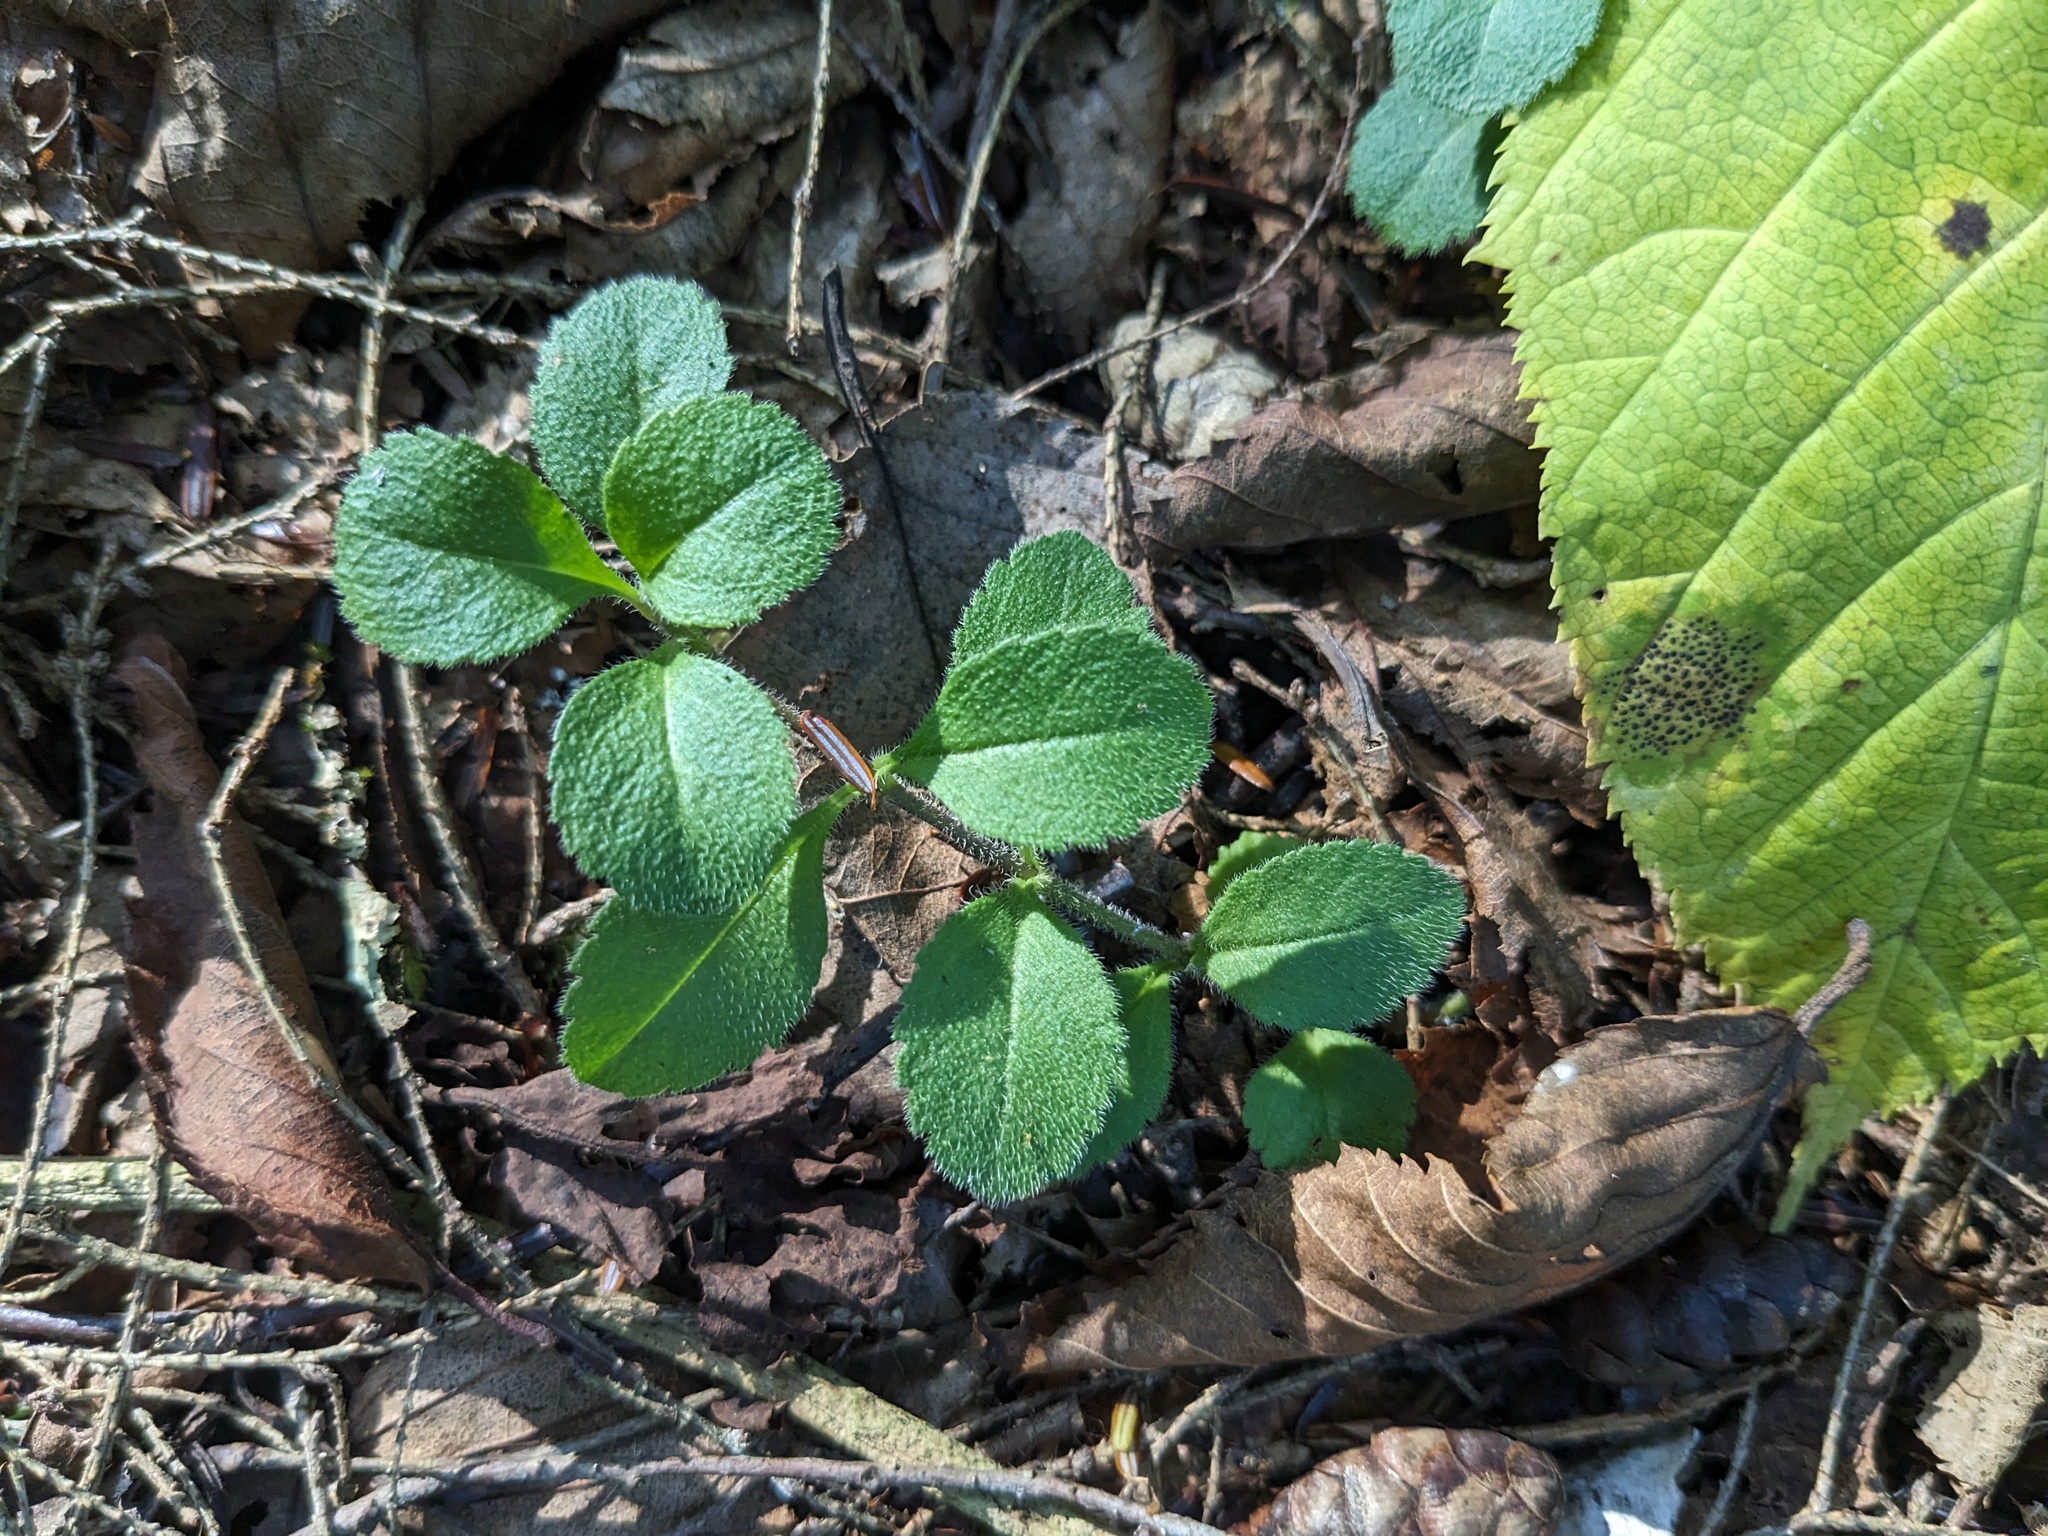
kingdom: Plantae
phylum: Tracheophyta
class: Magnoliopsida
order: Lamiales
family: Plantaginaceae
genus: Veronica
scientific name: Veronica officinalis
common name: Common speedwell
